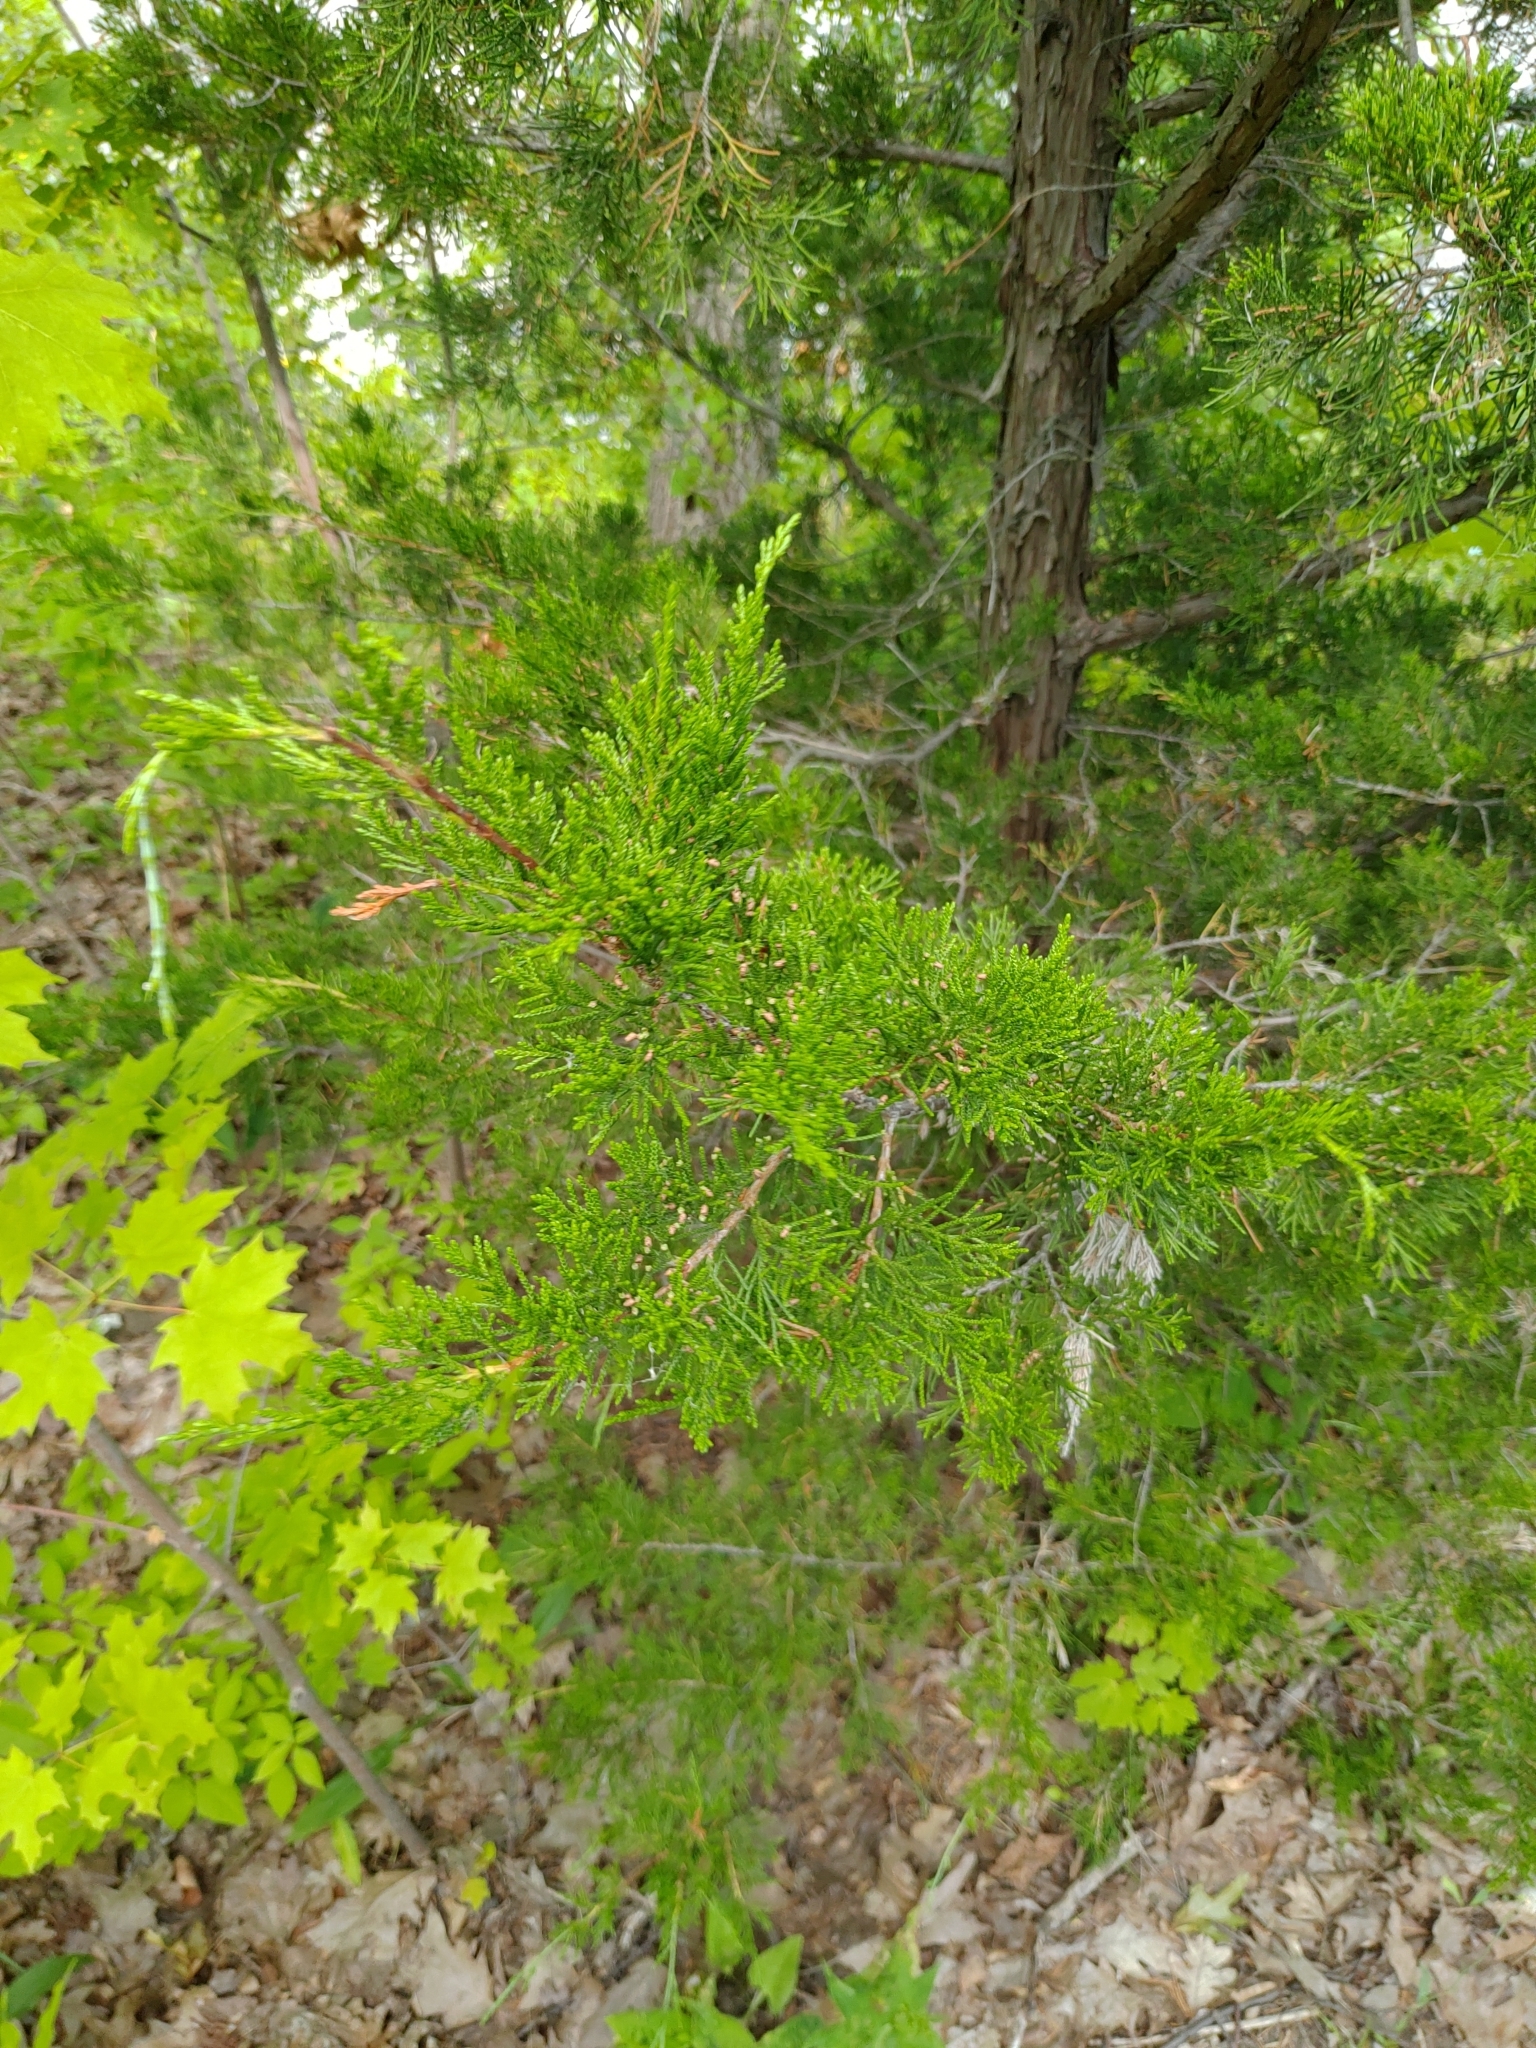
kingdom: Plantae
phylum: Tracheophyta
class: Pinopsida
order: Pinales
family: Cupressaceae
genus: Juniperus
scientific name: Juniperus virginiana
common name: Red juniper
